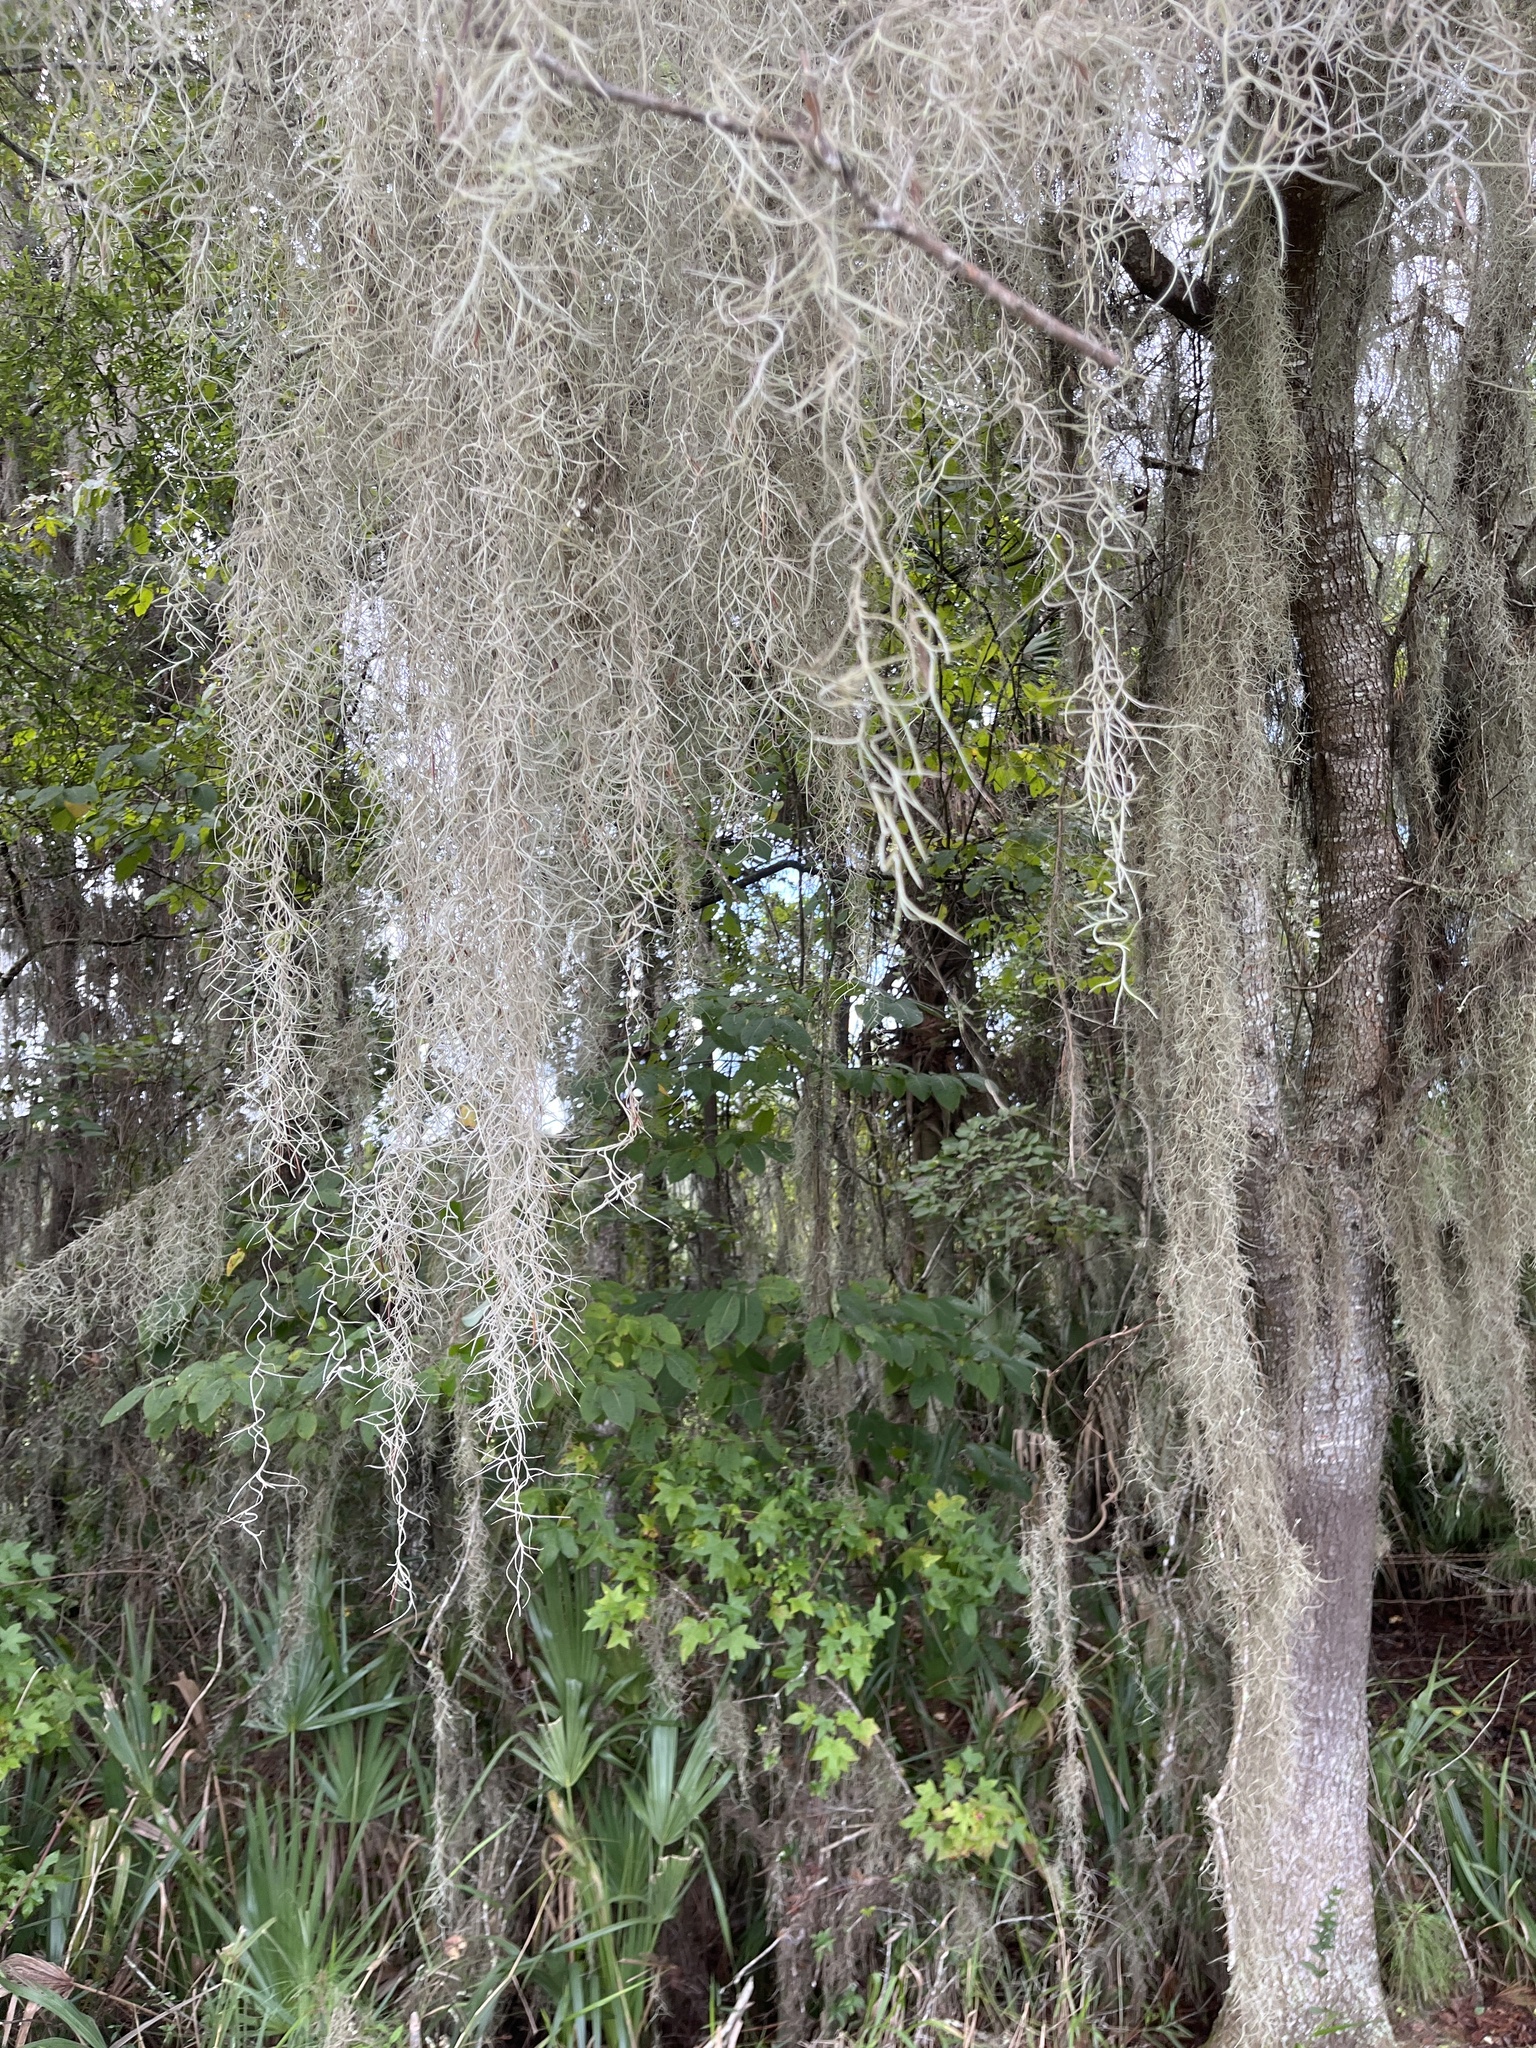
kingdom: Plantae
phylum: Tracheophyta
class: Liliopsida
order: Poales
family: Bromeliaceae
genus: Tillandsia
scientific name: Tillandsia usneoides
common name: Spanish moss
